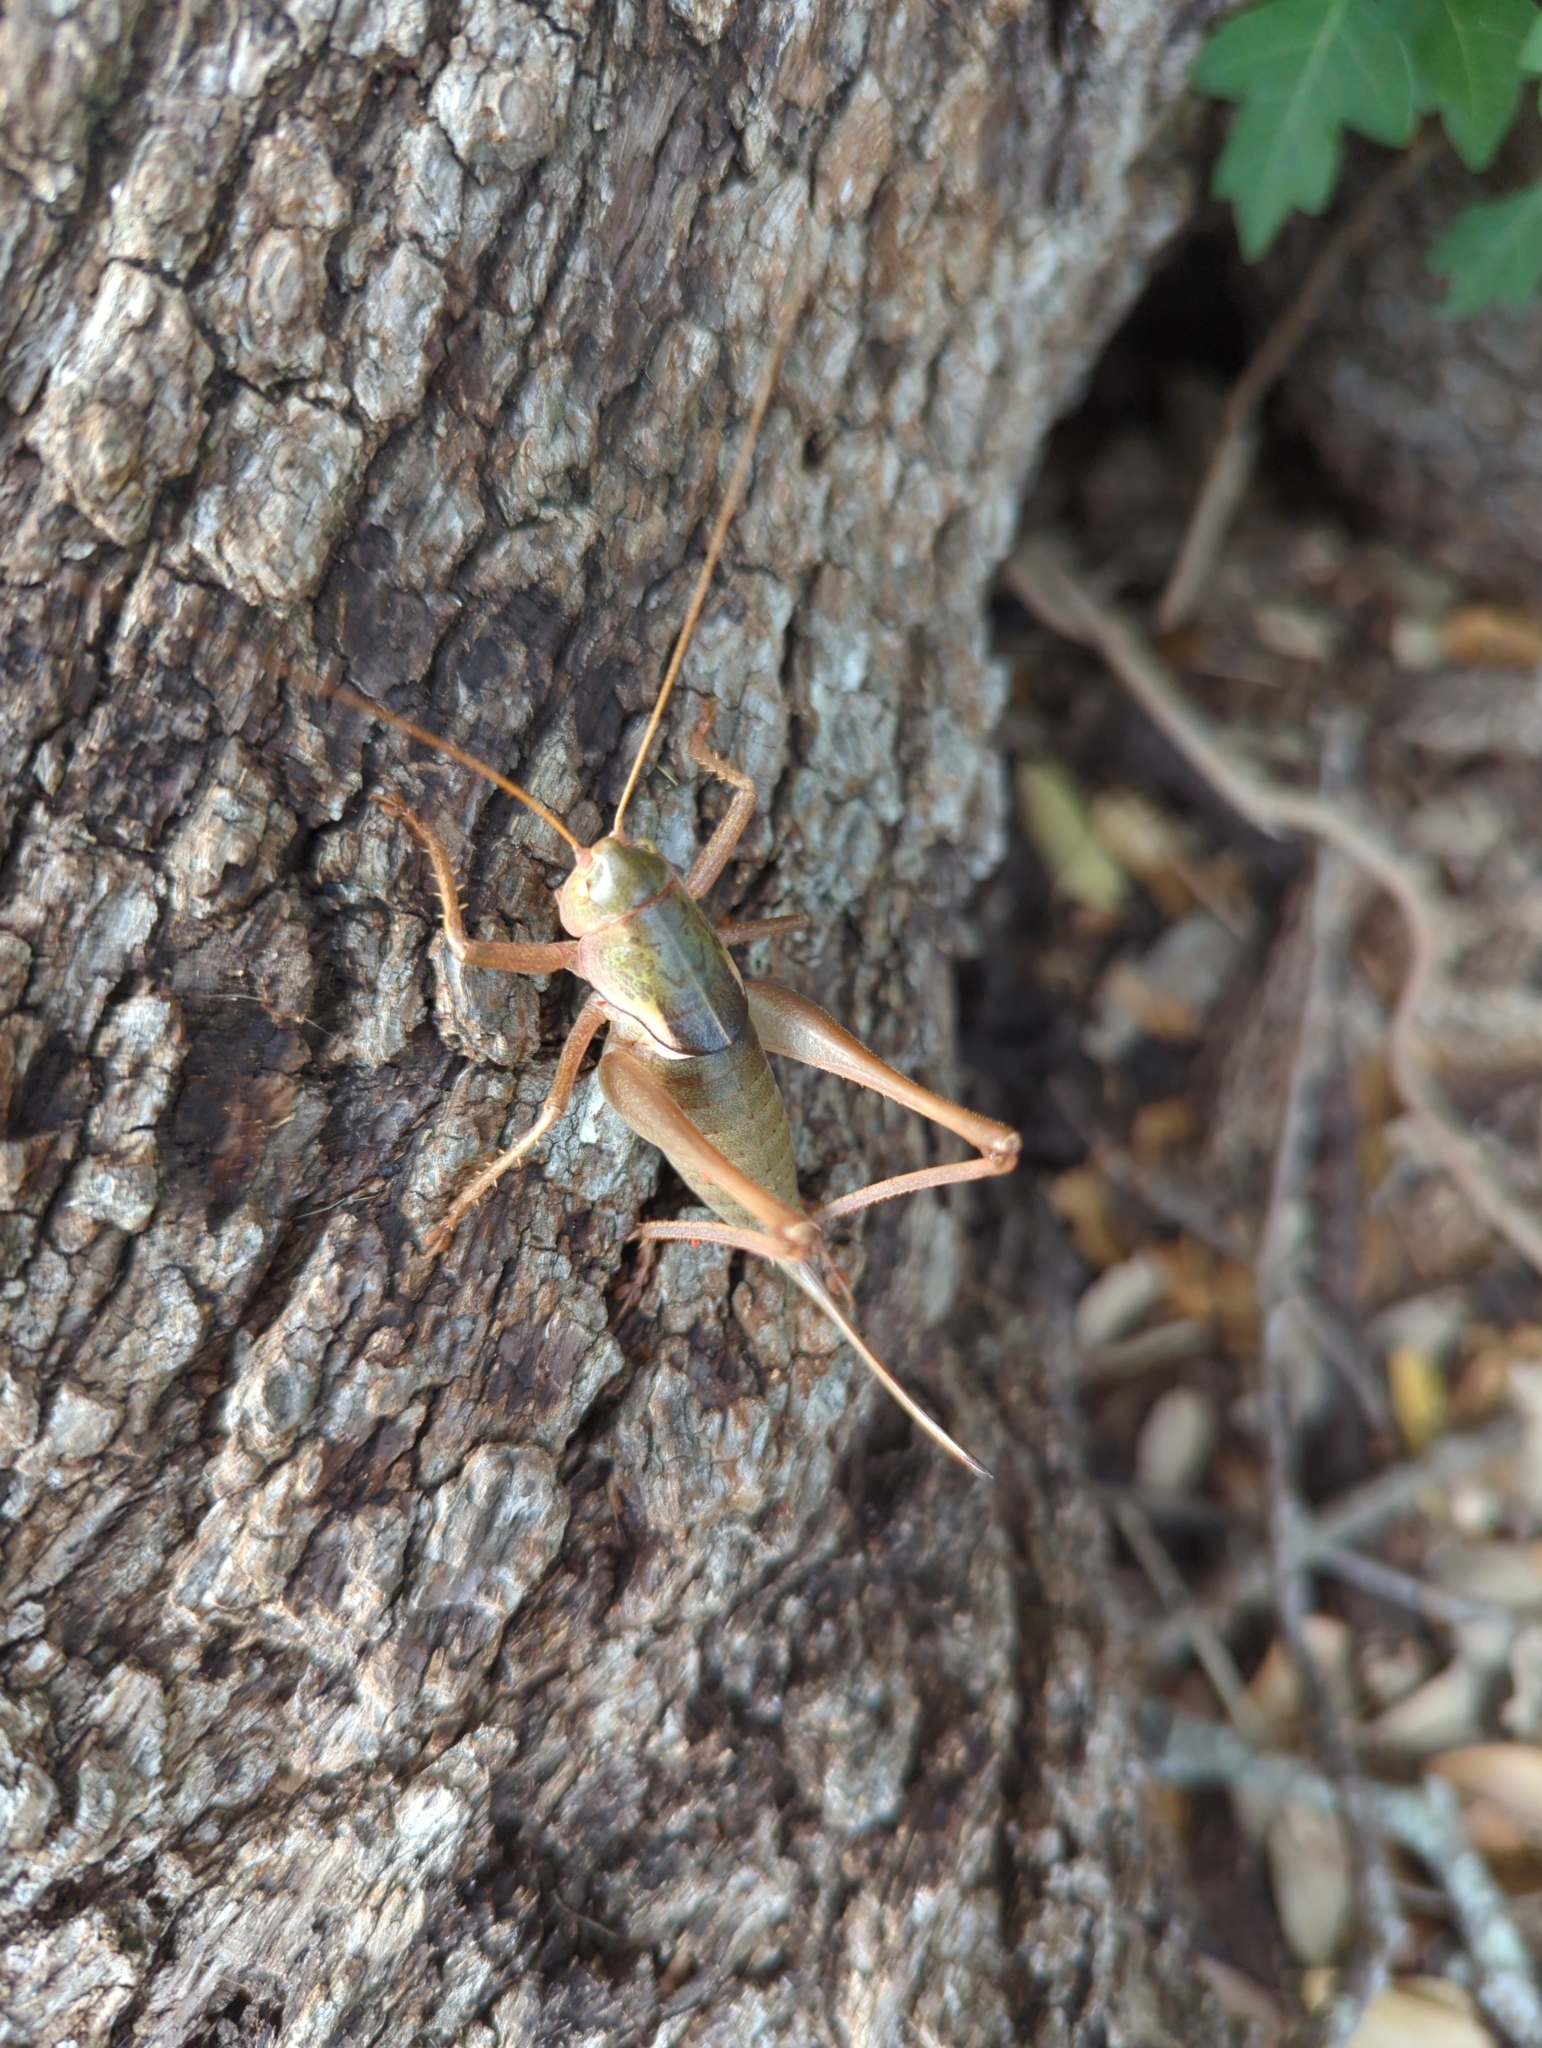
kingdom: Animalia
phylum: Arthropoda
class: Insecta
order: Orthoptera
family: Tettigoniidae
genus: Pediodectes
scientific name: Pediodectes haldemanii
